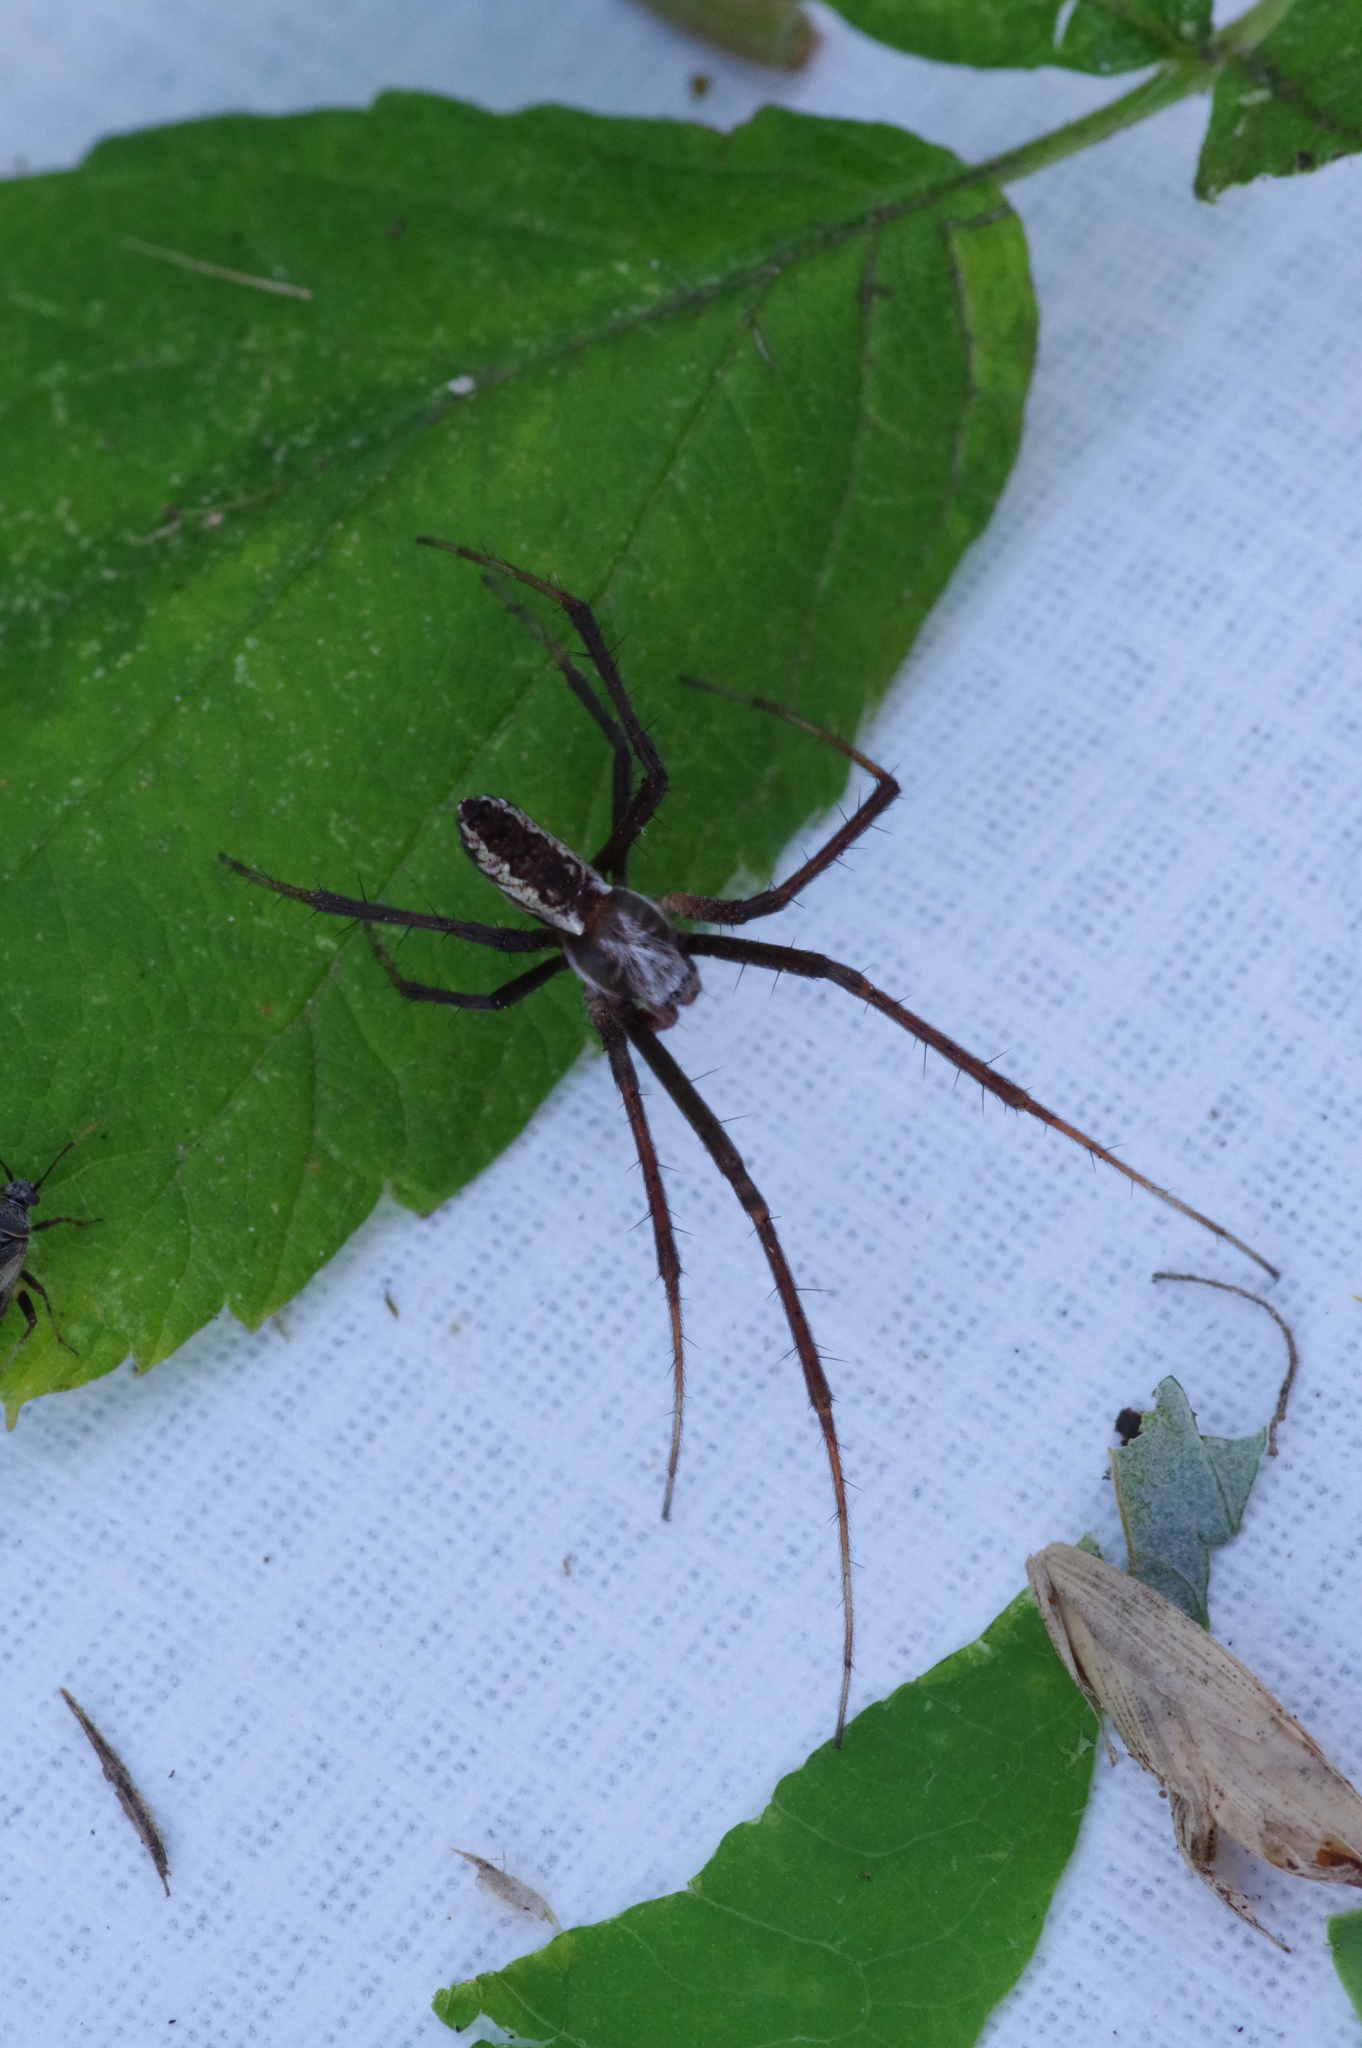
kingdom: Animalia
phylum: Arthropoda
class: Arachnida
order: Araneae
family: Araneidae
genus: Argiope
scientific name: Argiope aurantia
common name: Orb weavers
